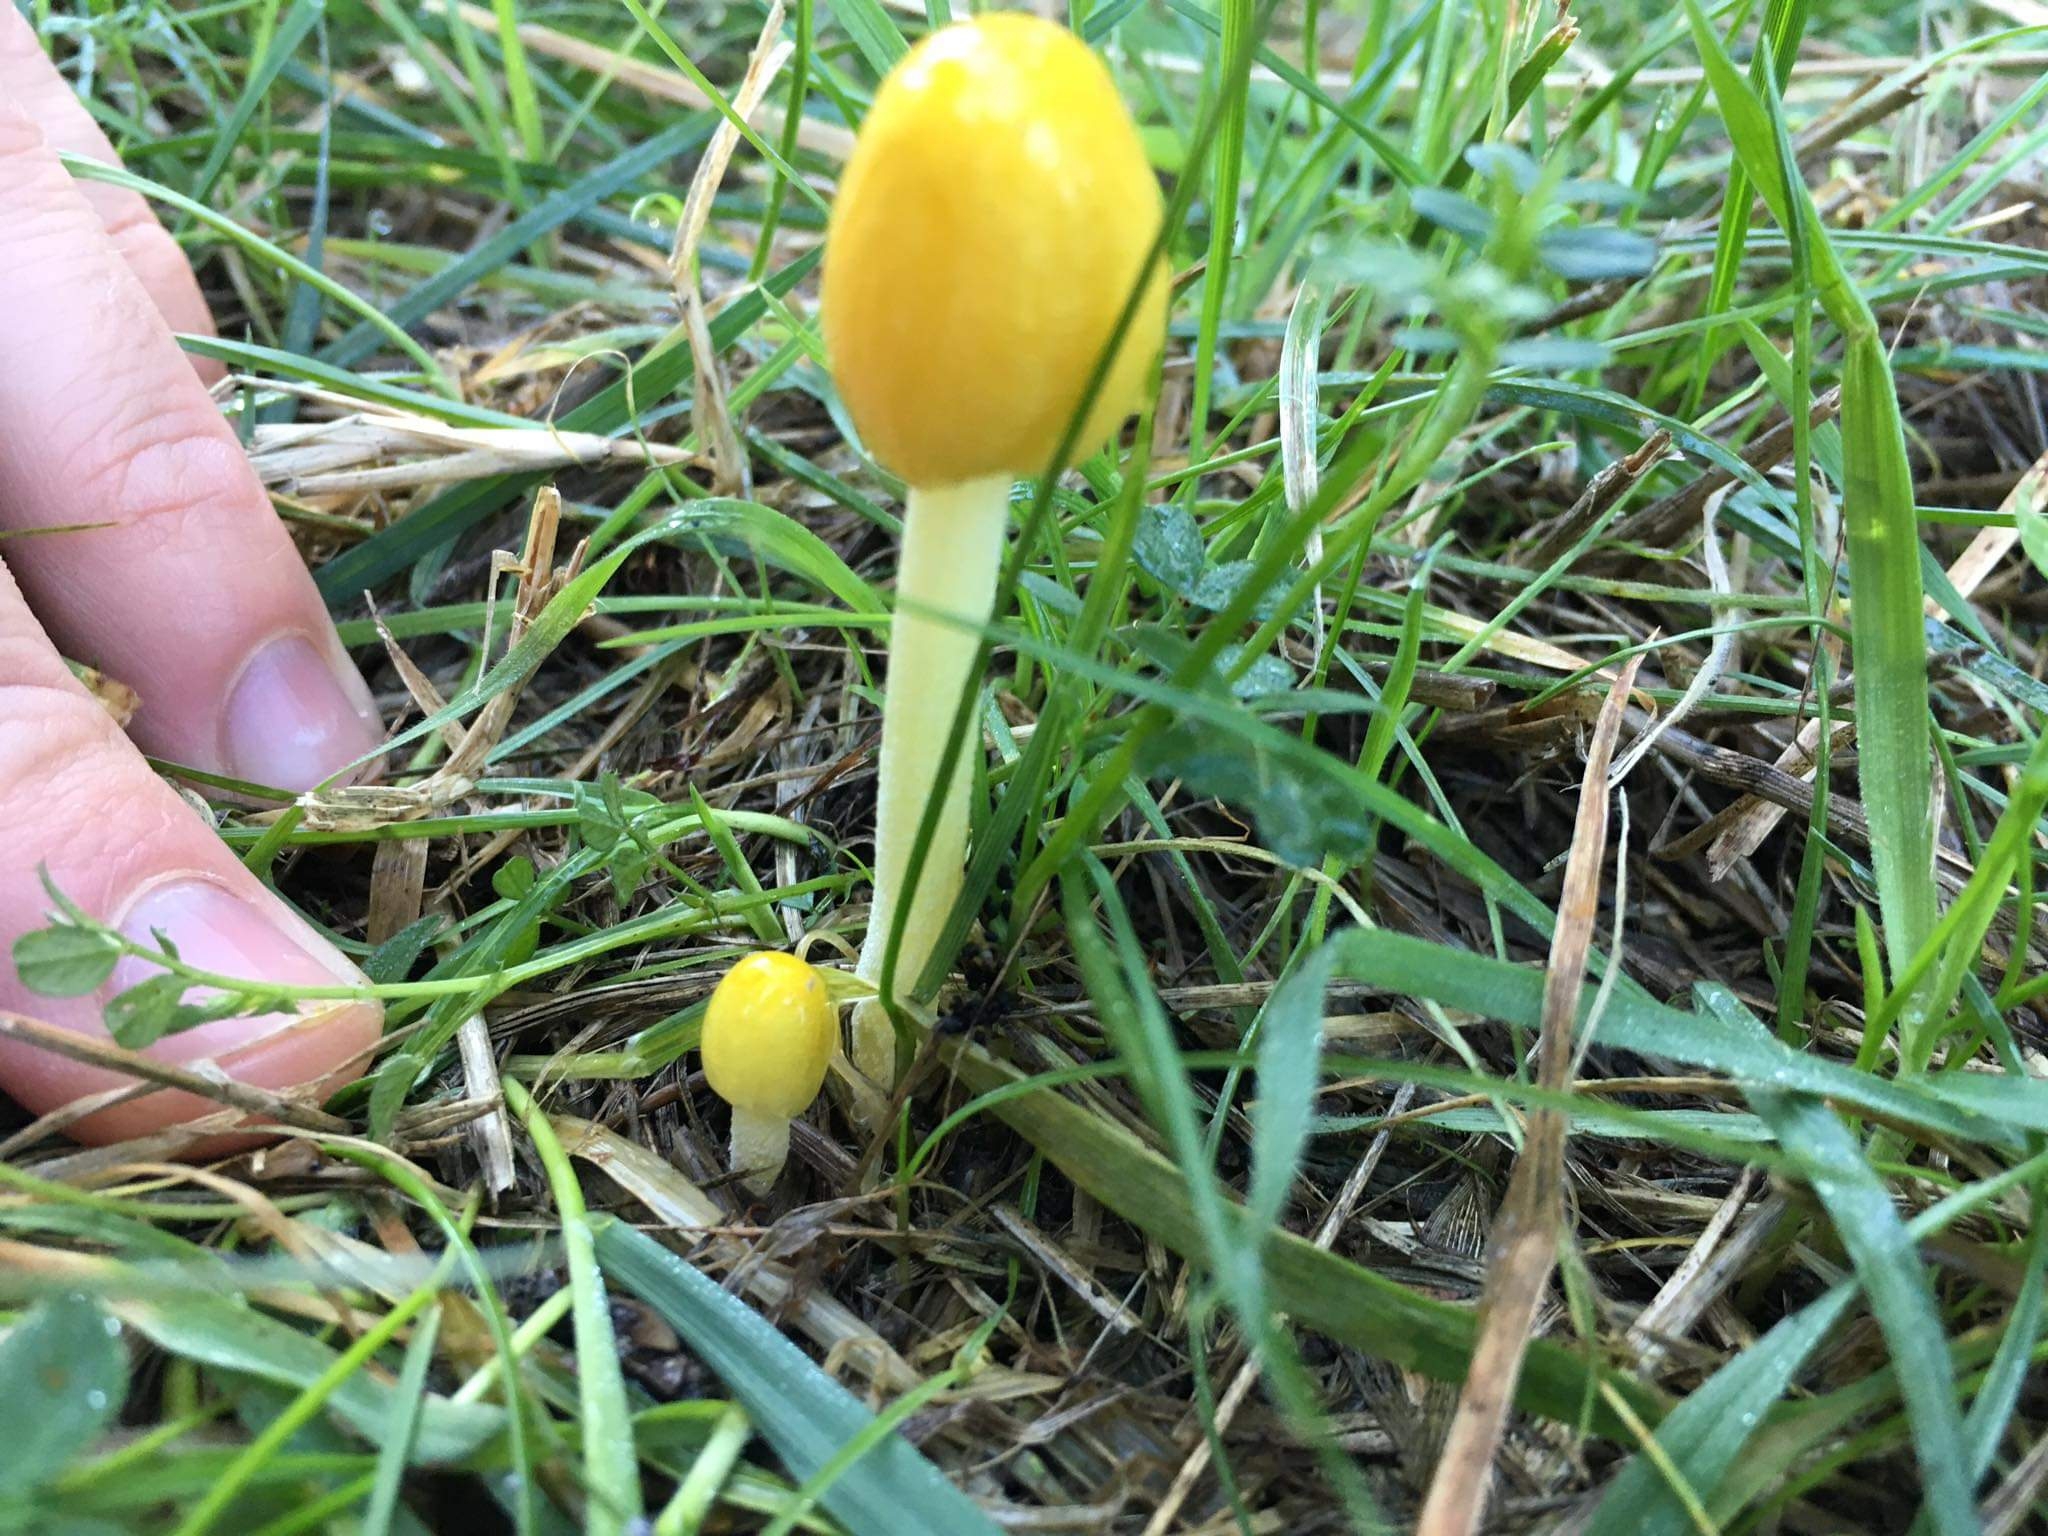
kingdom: Fungi
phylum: Basidiomycota
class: Agaricomycetes
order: Agaricales
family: Bolbitiaceae
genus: Bolbitius
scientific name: Bolbitius titubans
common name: Yellow fieldcap
